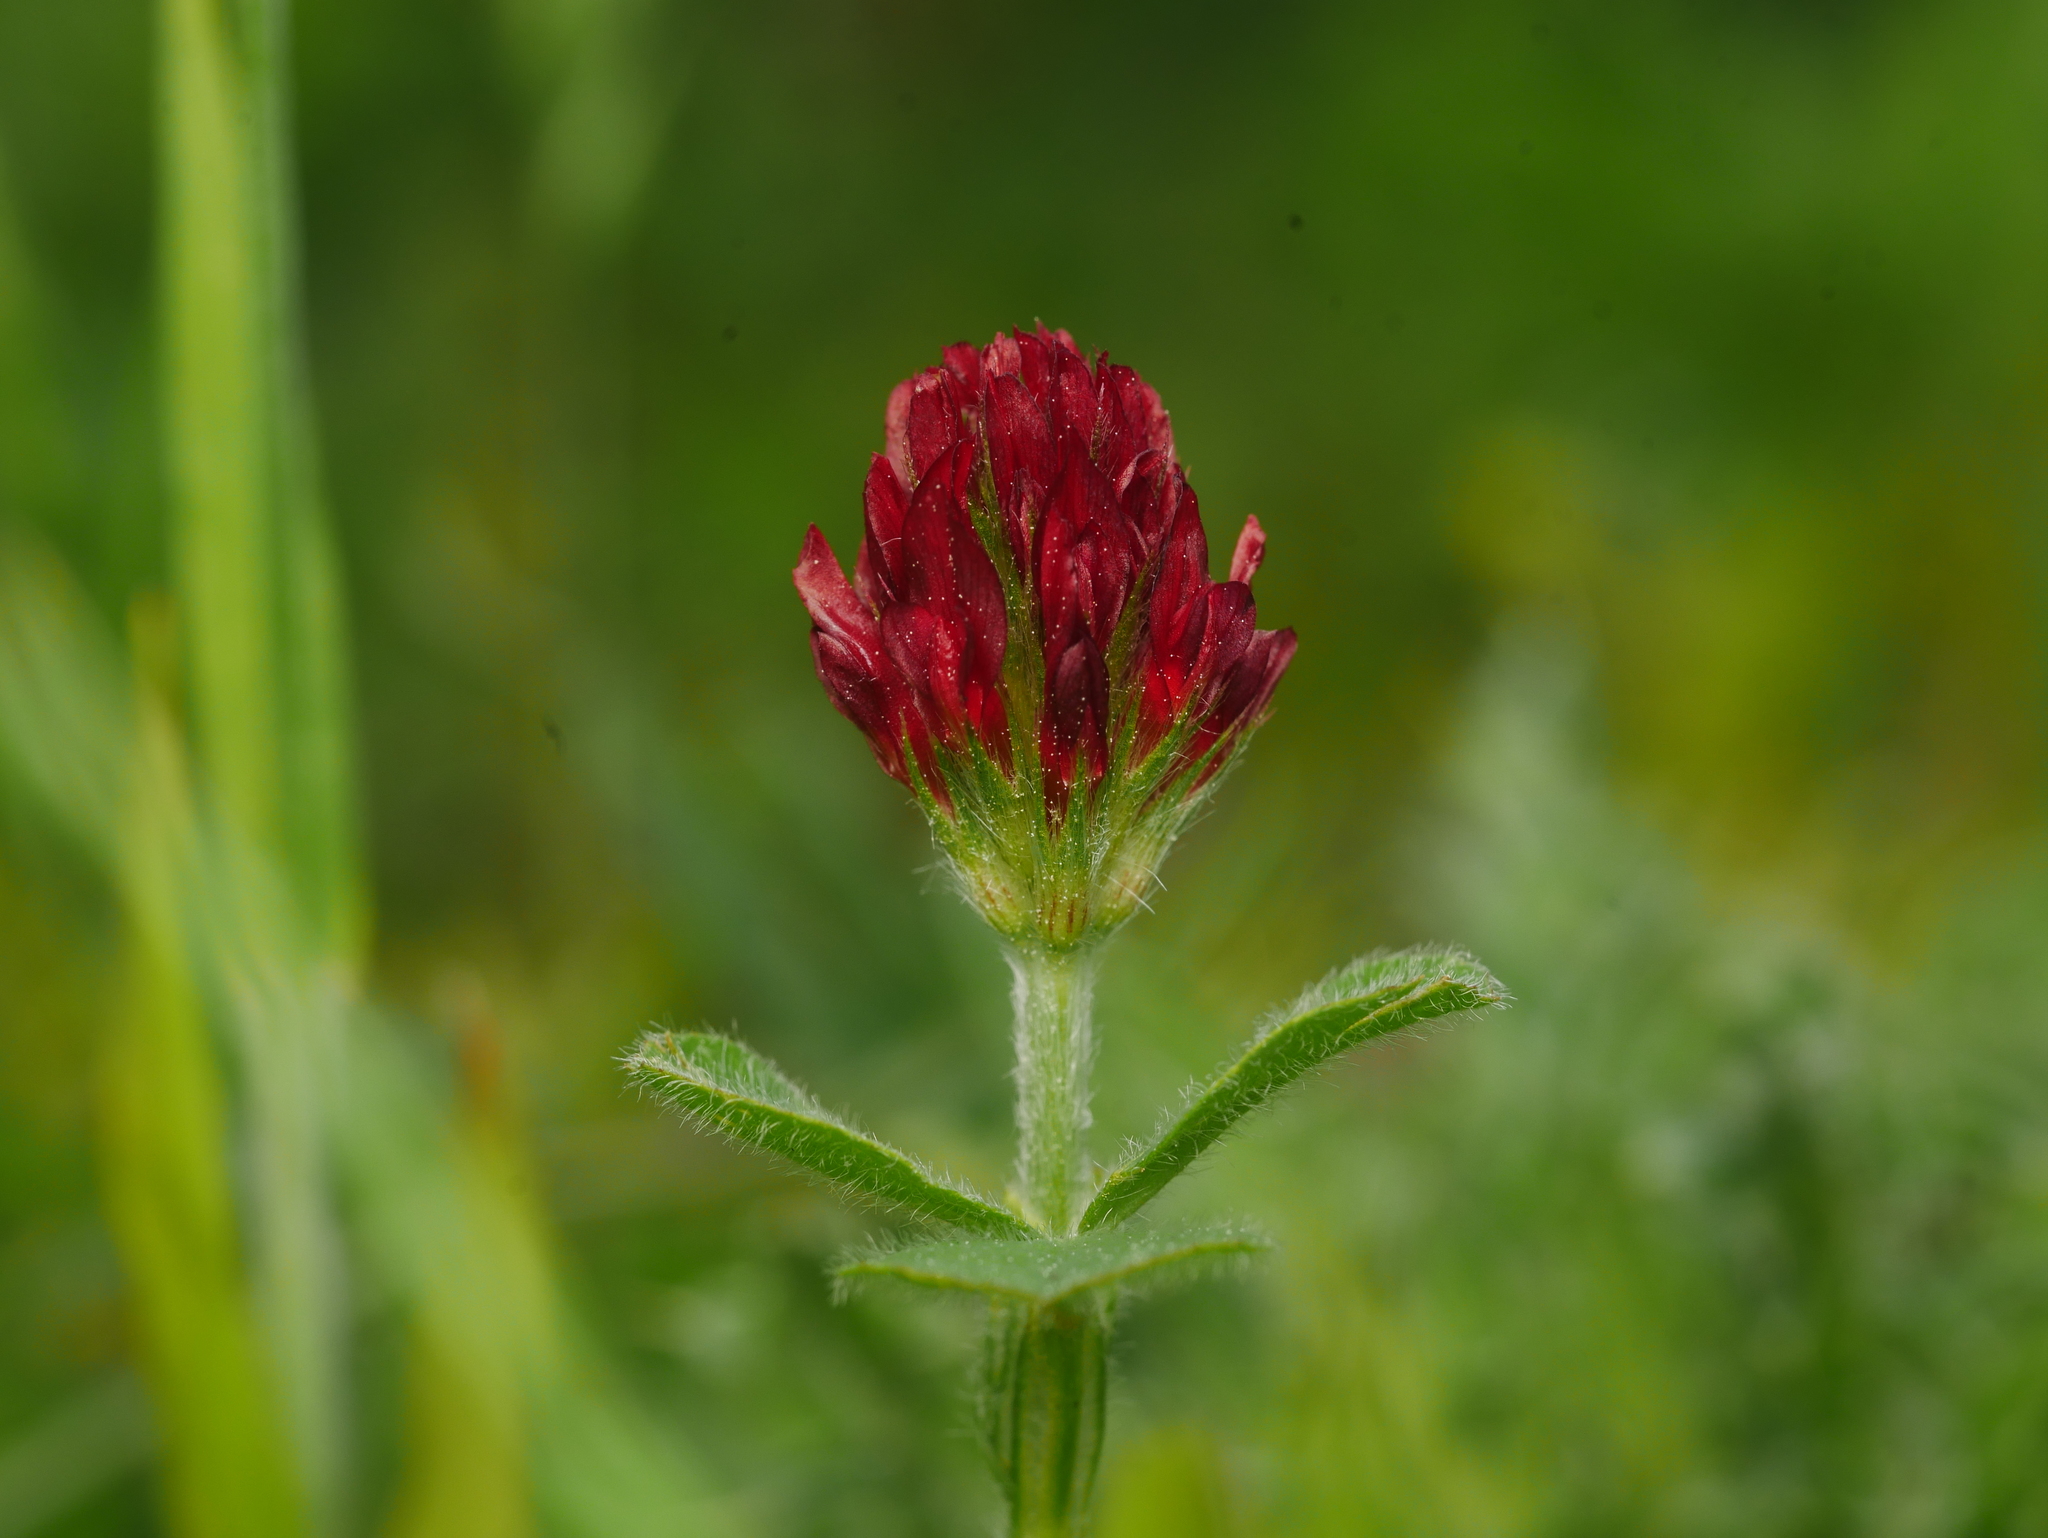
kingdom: Plantae
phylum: Tracheophyta
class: Magnoliopsida
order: Fabales
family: Fabaceae
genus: Trifolium
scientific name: Trifolium incarnatum
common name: Crimson clover
